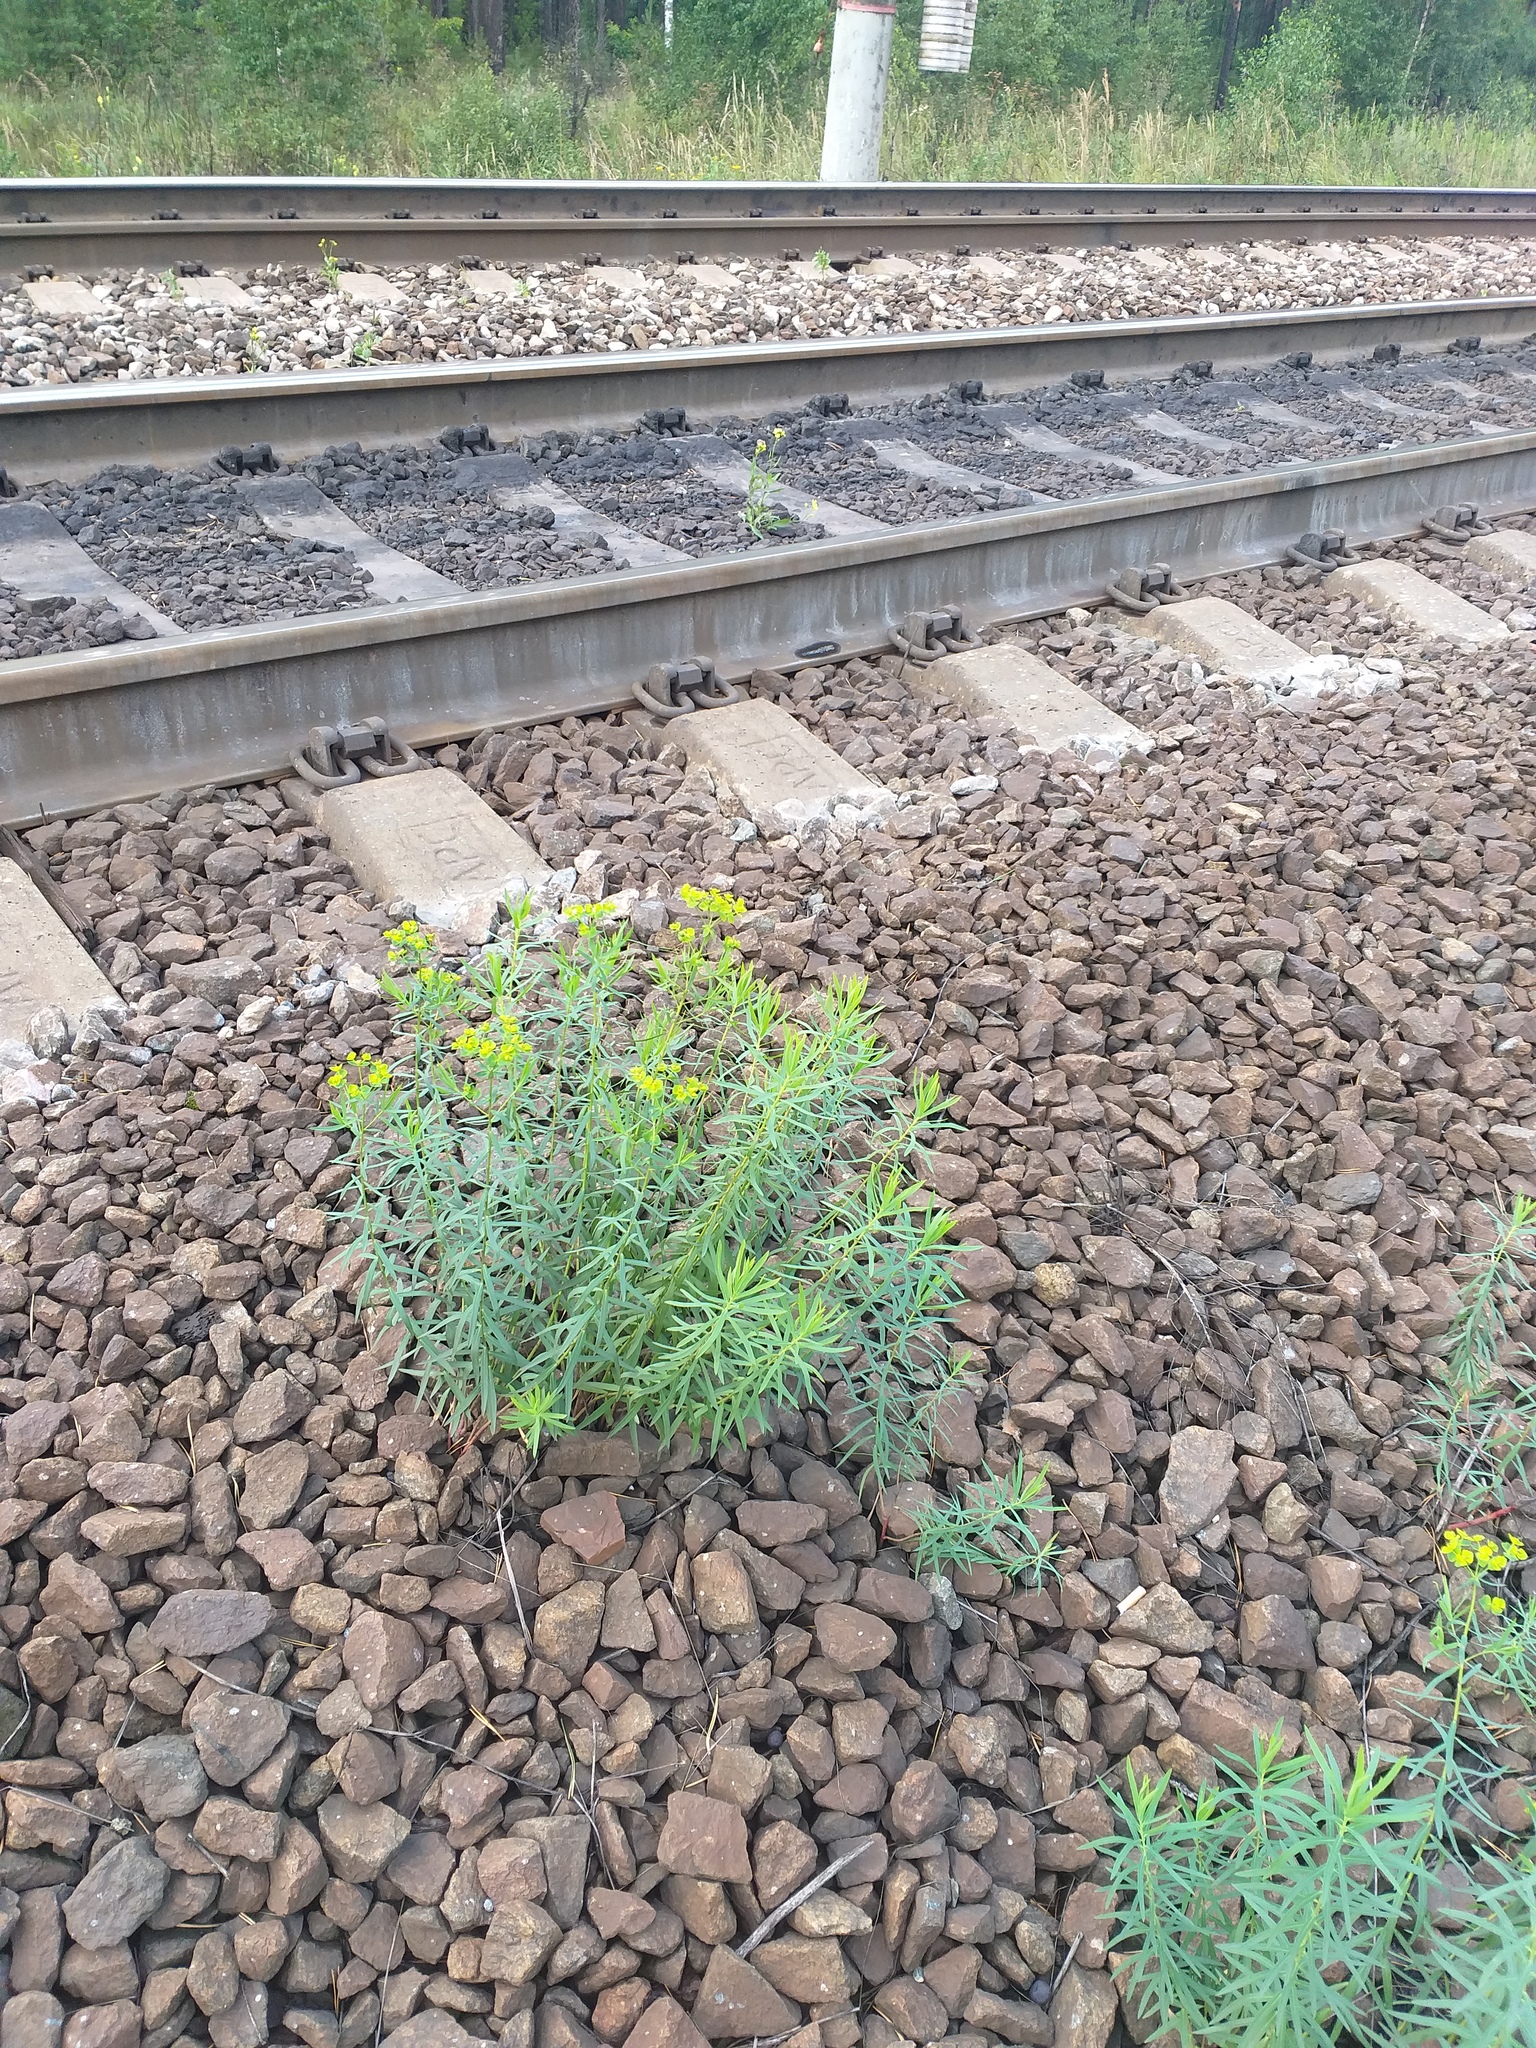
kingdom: Plantae
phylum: Tracheophyta
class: Magnoliopsida
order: Malpighiales
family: Euphorbiaceae
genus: Euphorbia
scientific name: Euphorbia virgata
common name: Leafy spurge
